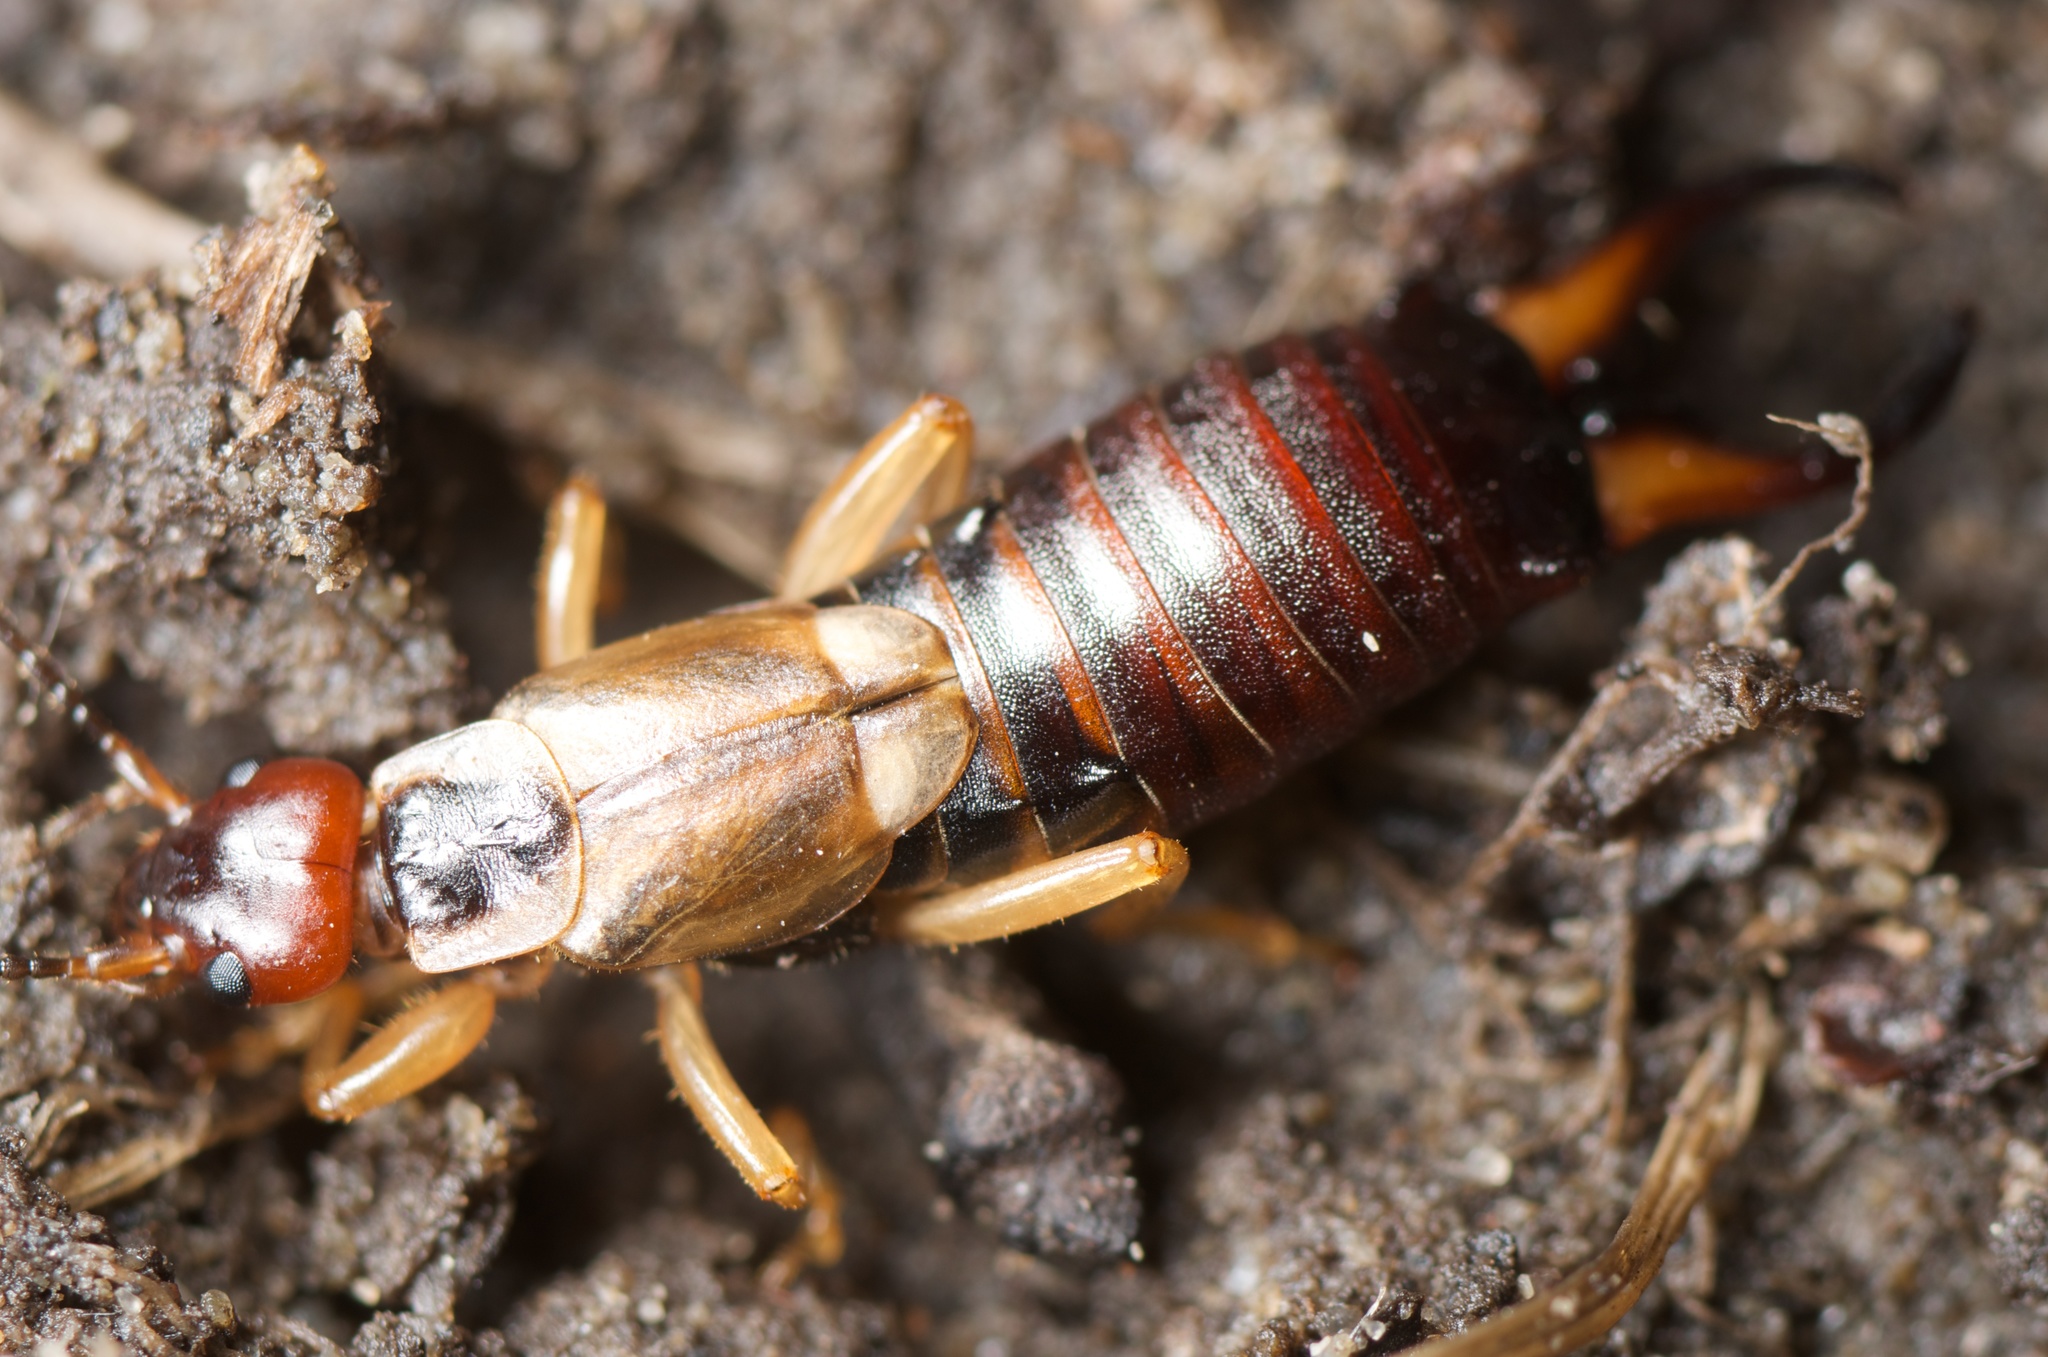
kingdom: Animalia
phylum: Arthropoda
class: Insecta
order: Dermaptera
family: Forficulidae
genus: Forficula
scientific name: Forficula
